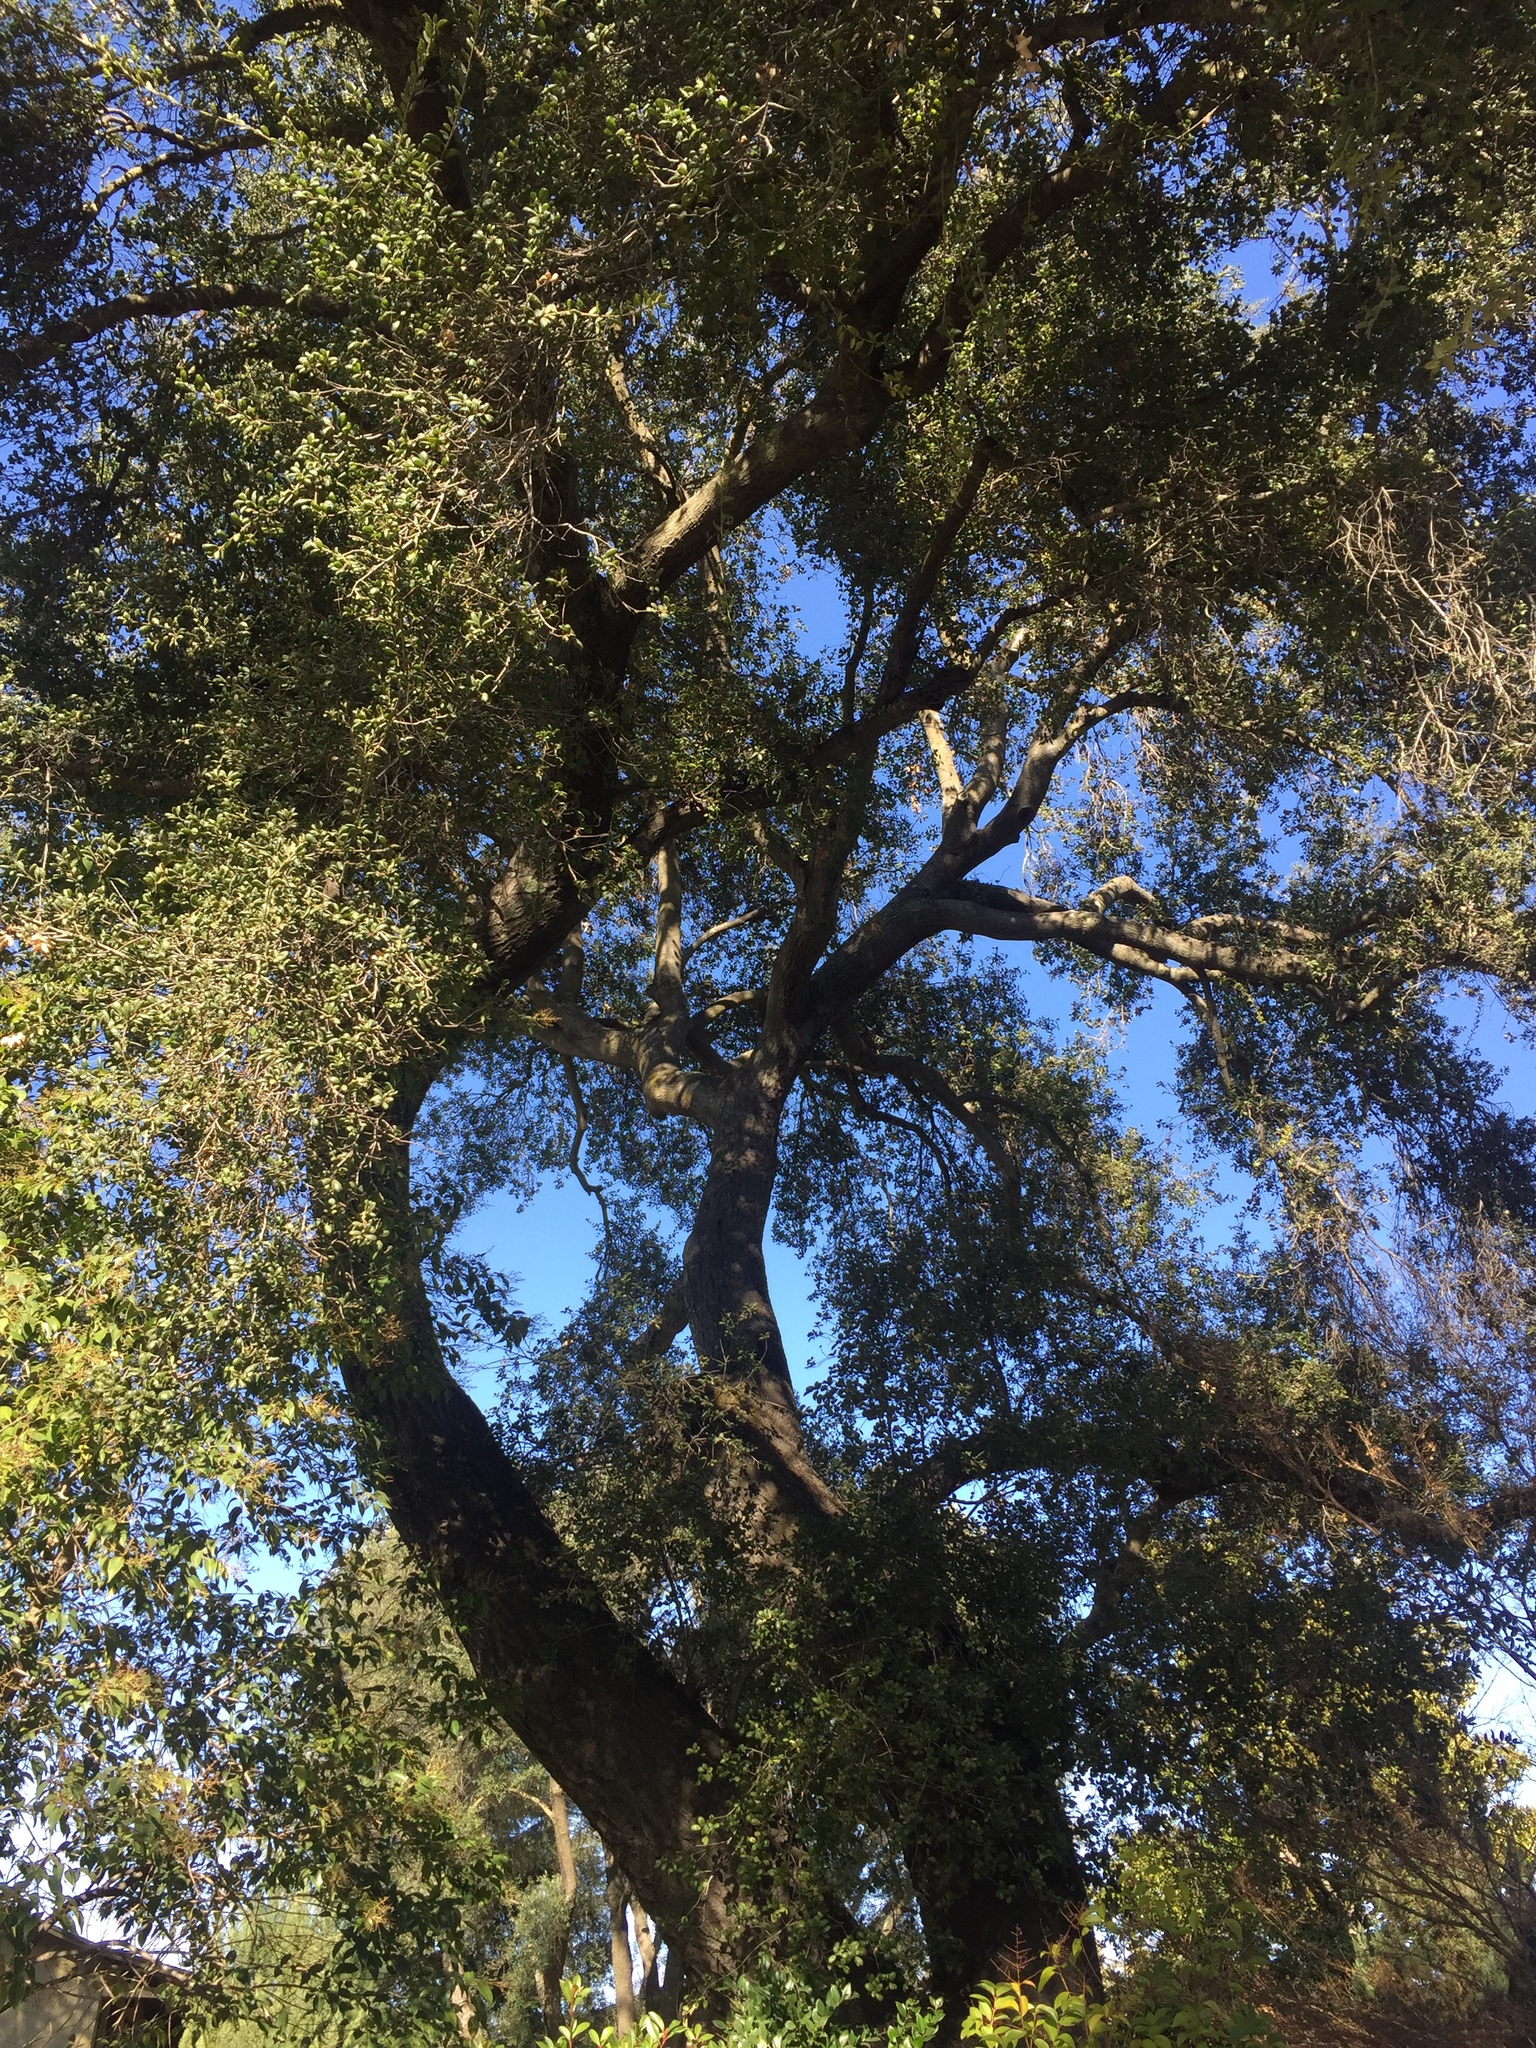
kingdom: Plantae
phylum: Tracheophyta
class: Magnoliopsida
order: Fagales
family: Fagaceae
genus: Quercus
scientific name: Quercus agrifolia
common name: California live oak
